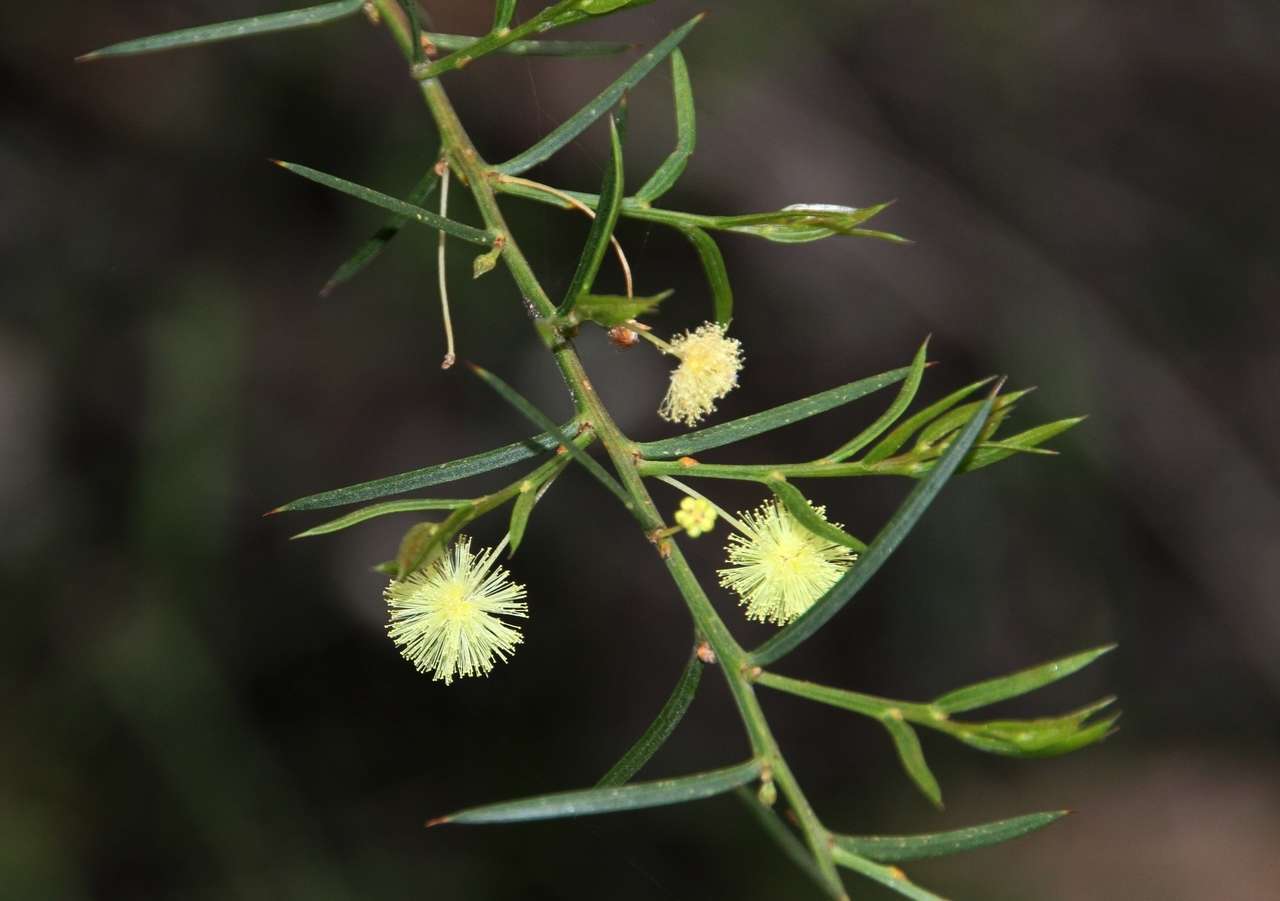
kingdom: Plantae
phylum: Tracheophyta
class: Magnoliopsida
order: Fabales
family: Fabaceae
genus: Acacia
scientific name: Acacia genistifolia
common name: Early wattle
